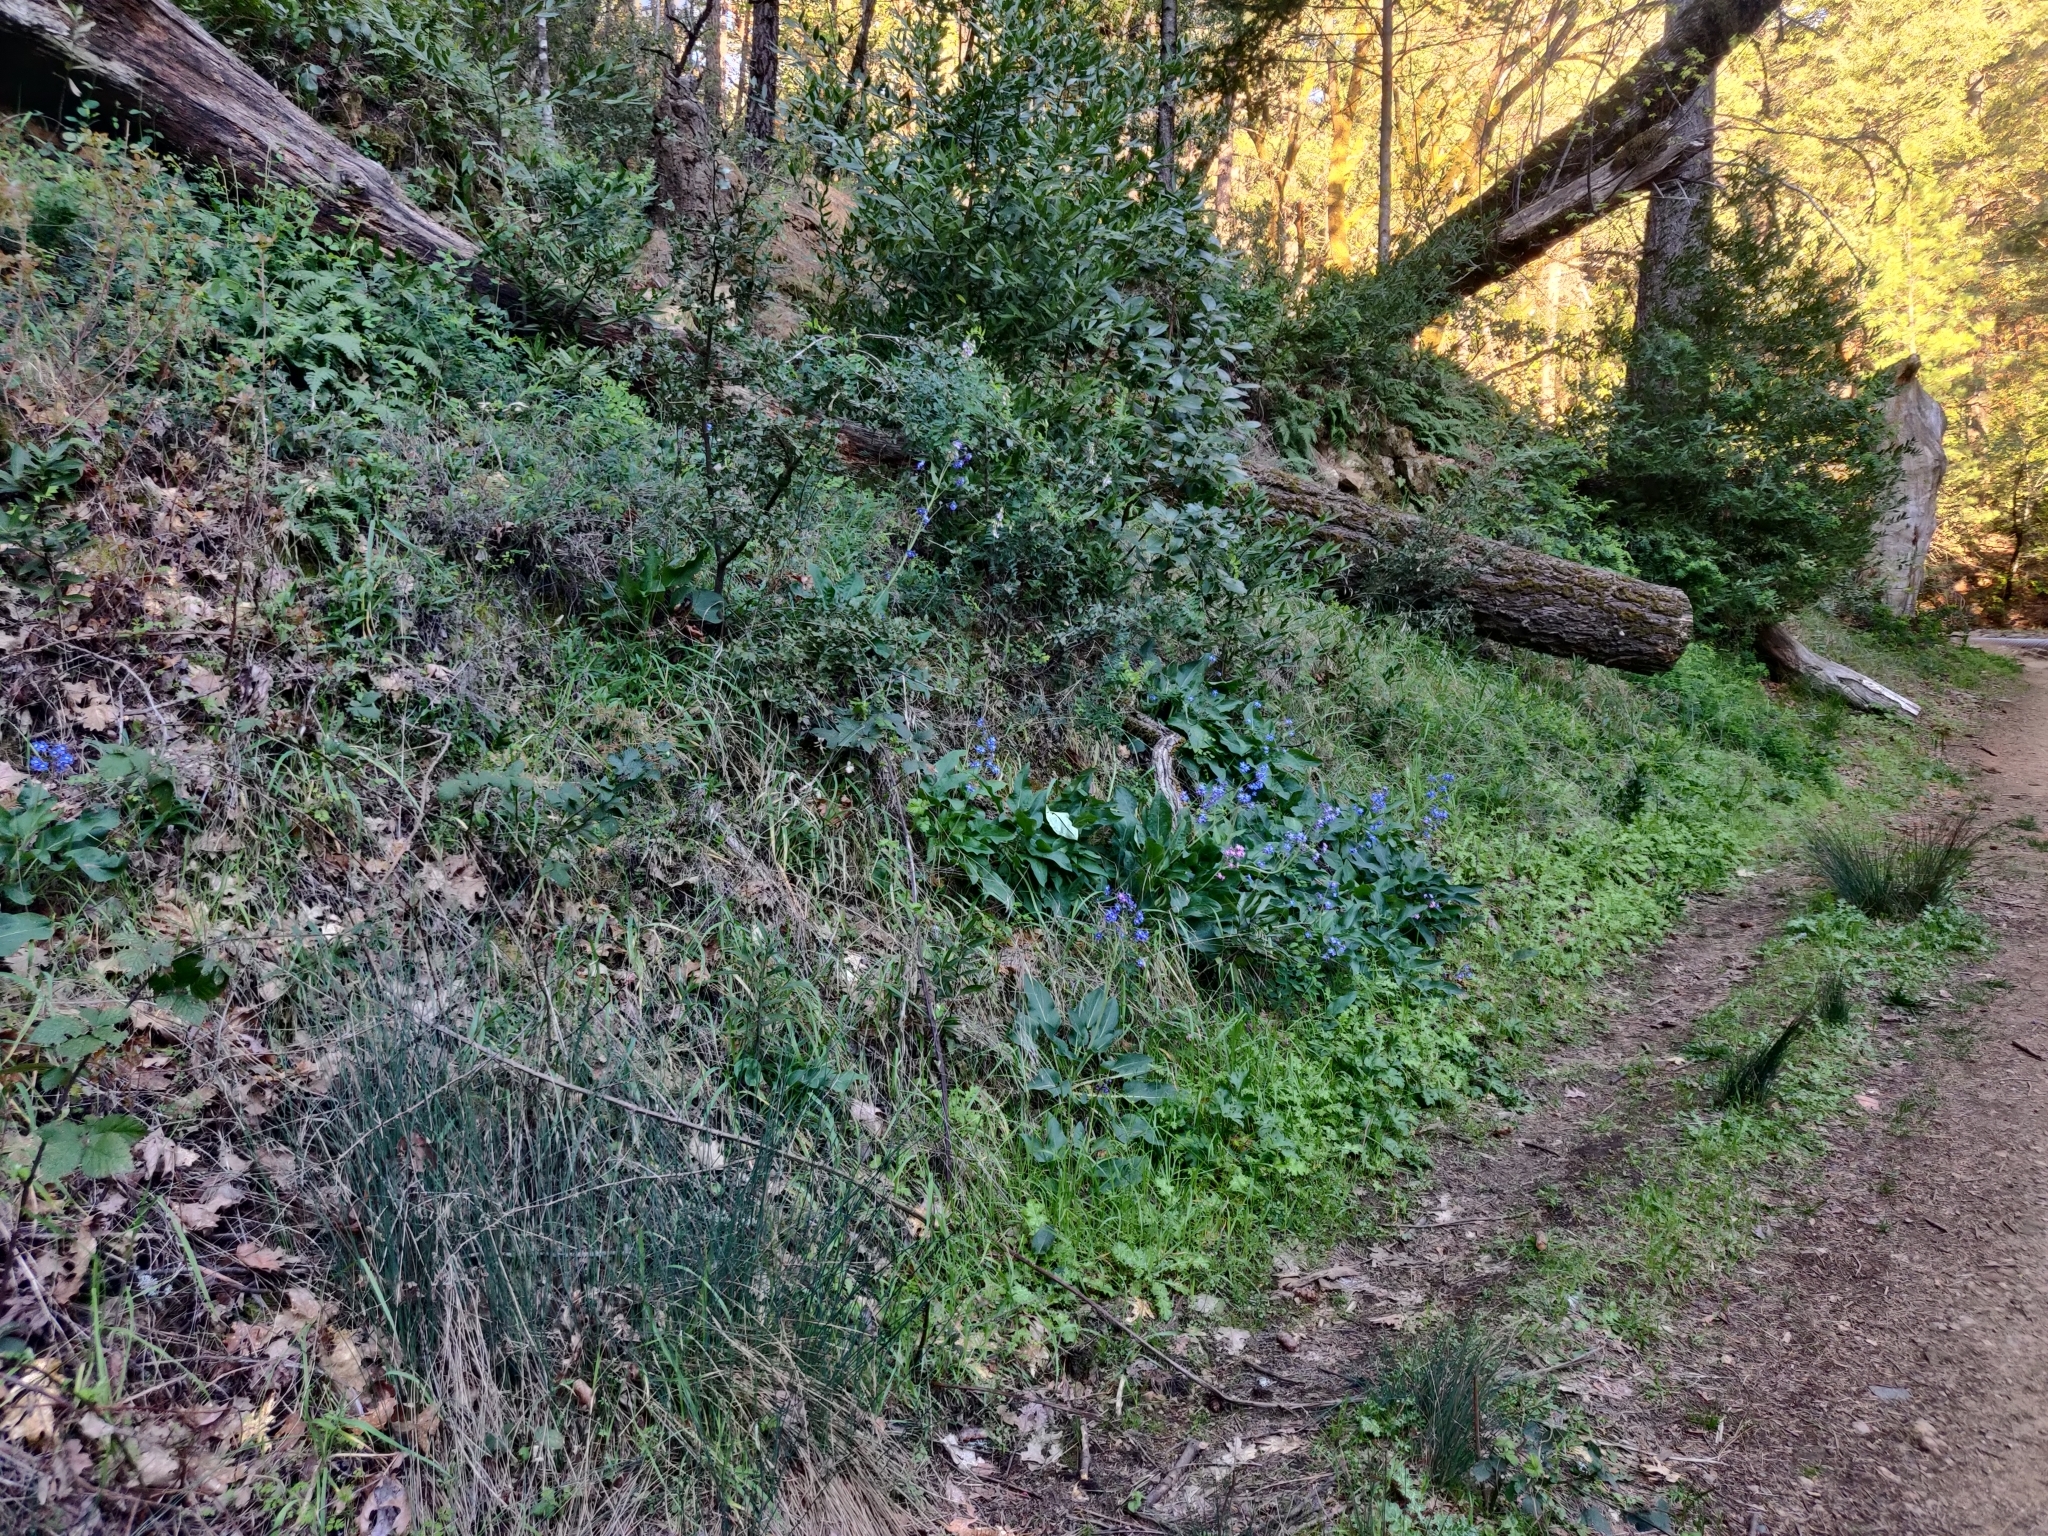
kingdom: Plantae
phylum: Tracheophyta
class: Magnoliopsida
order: Boraginales
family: Boraginaceae
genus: Adelinia
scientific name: Adelinia grande
